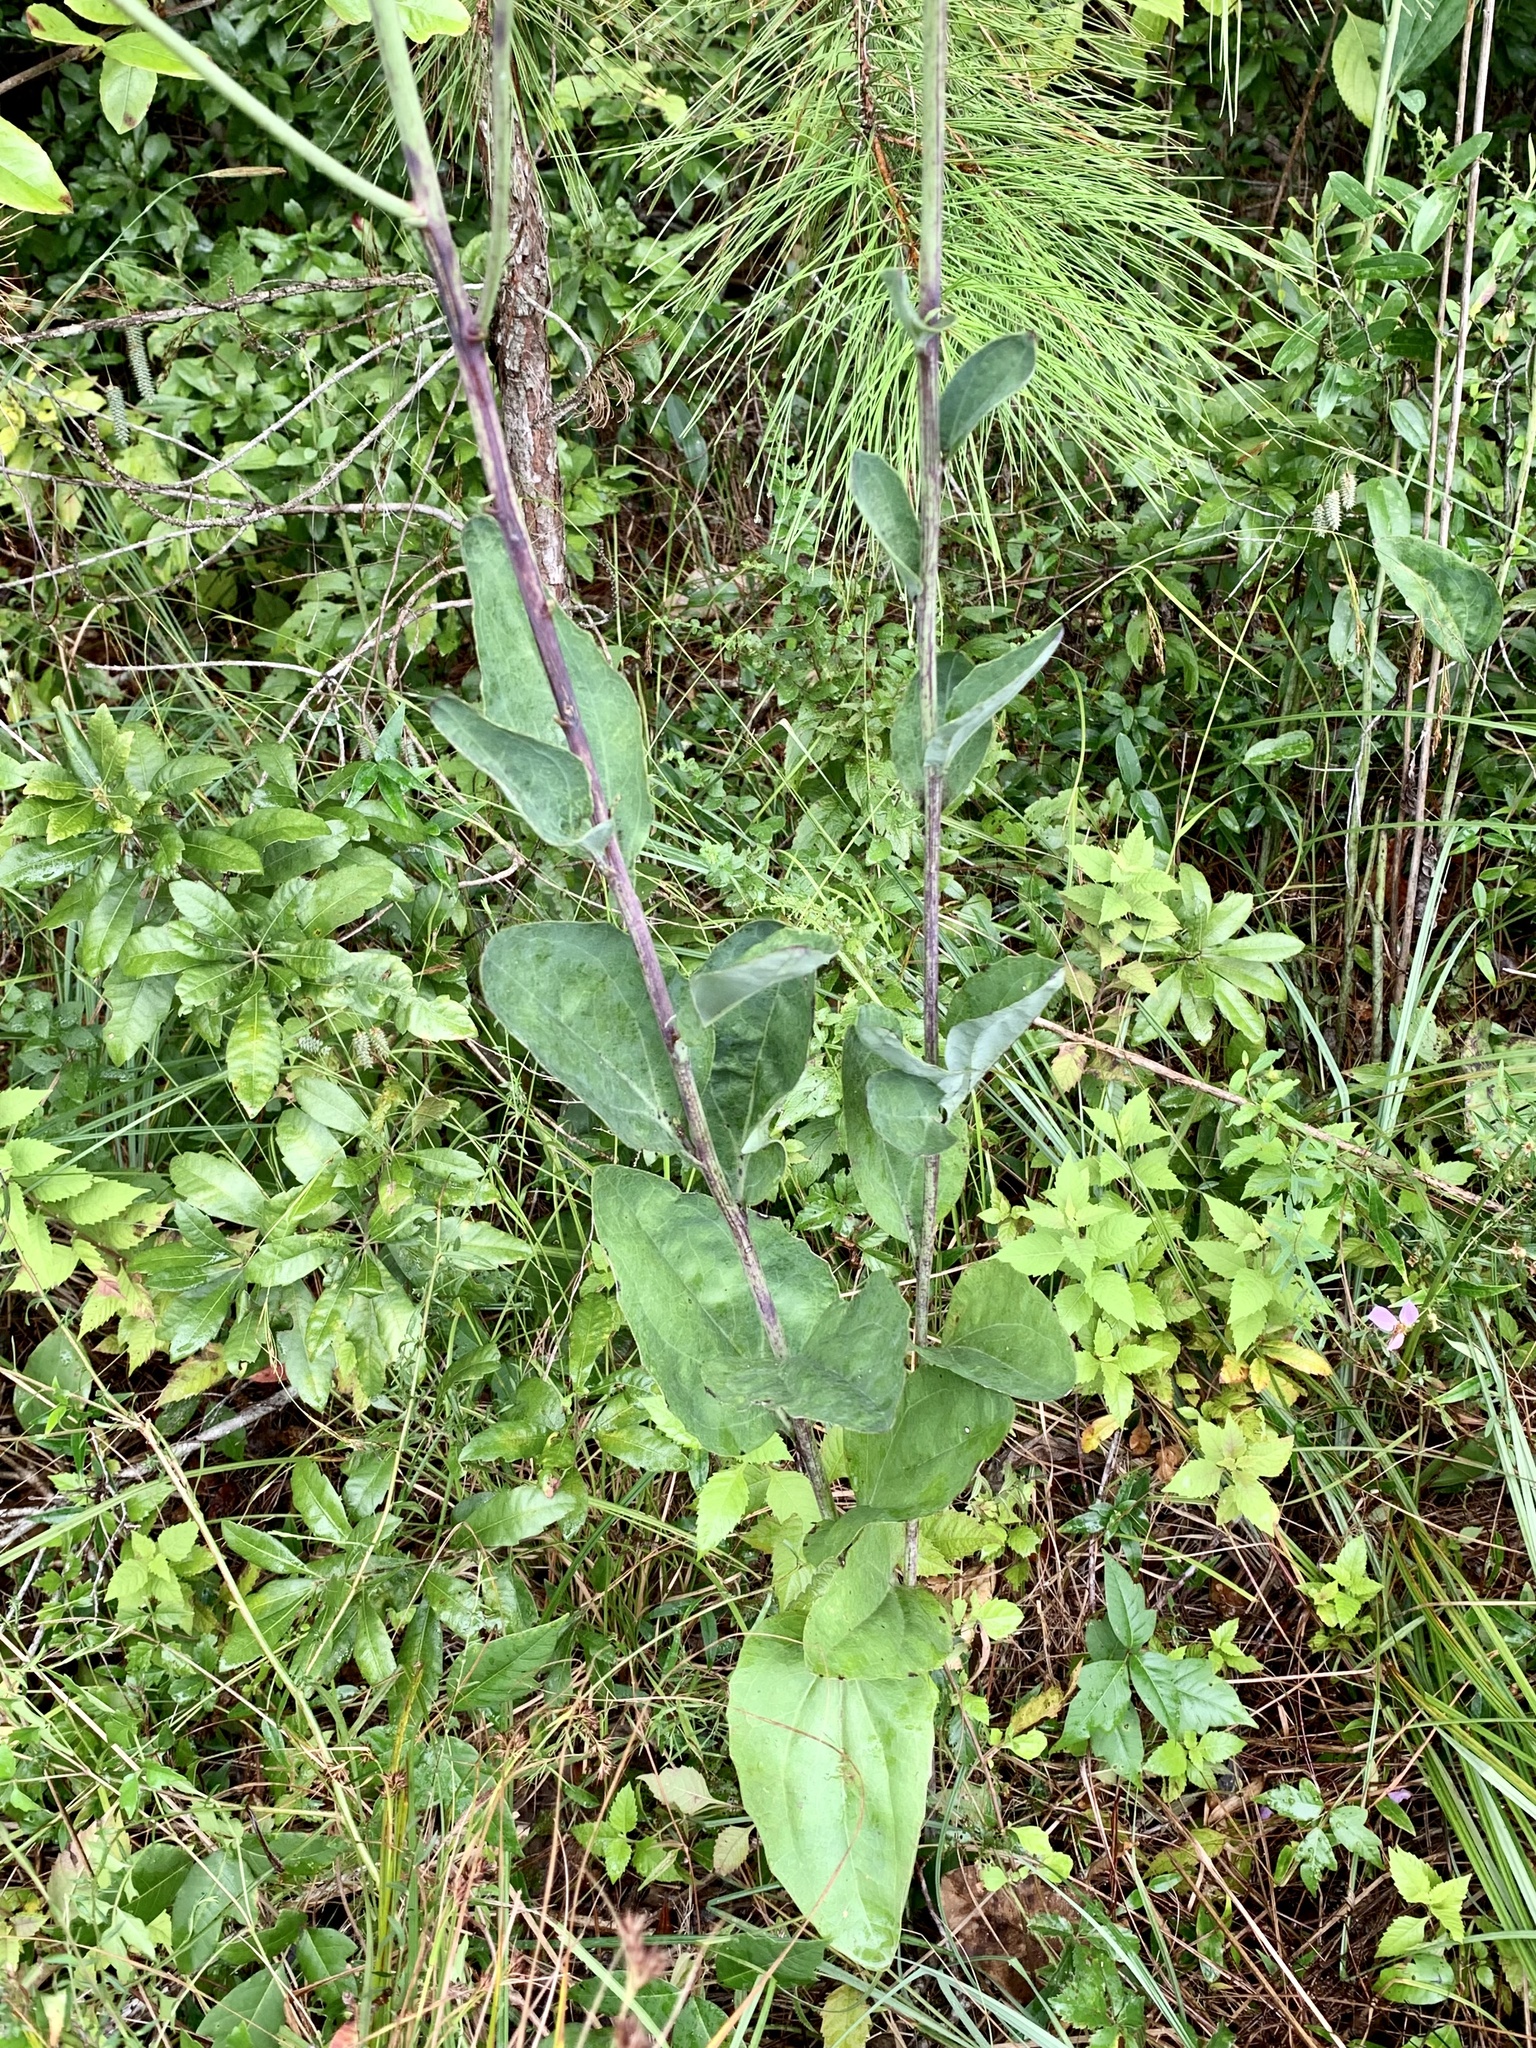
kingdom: Plantae
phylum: Tracheophyta
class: Magnoliopsida
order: Asterales
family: Asteraceae
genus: Arnoglossum
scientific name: Arnoglossum ovatum
